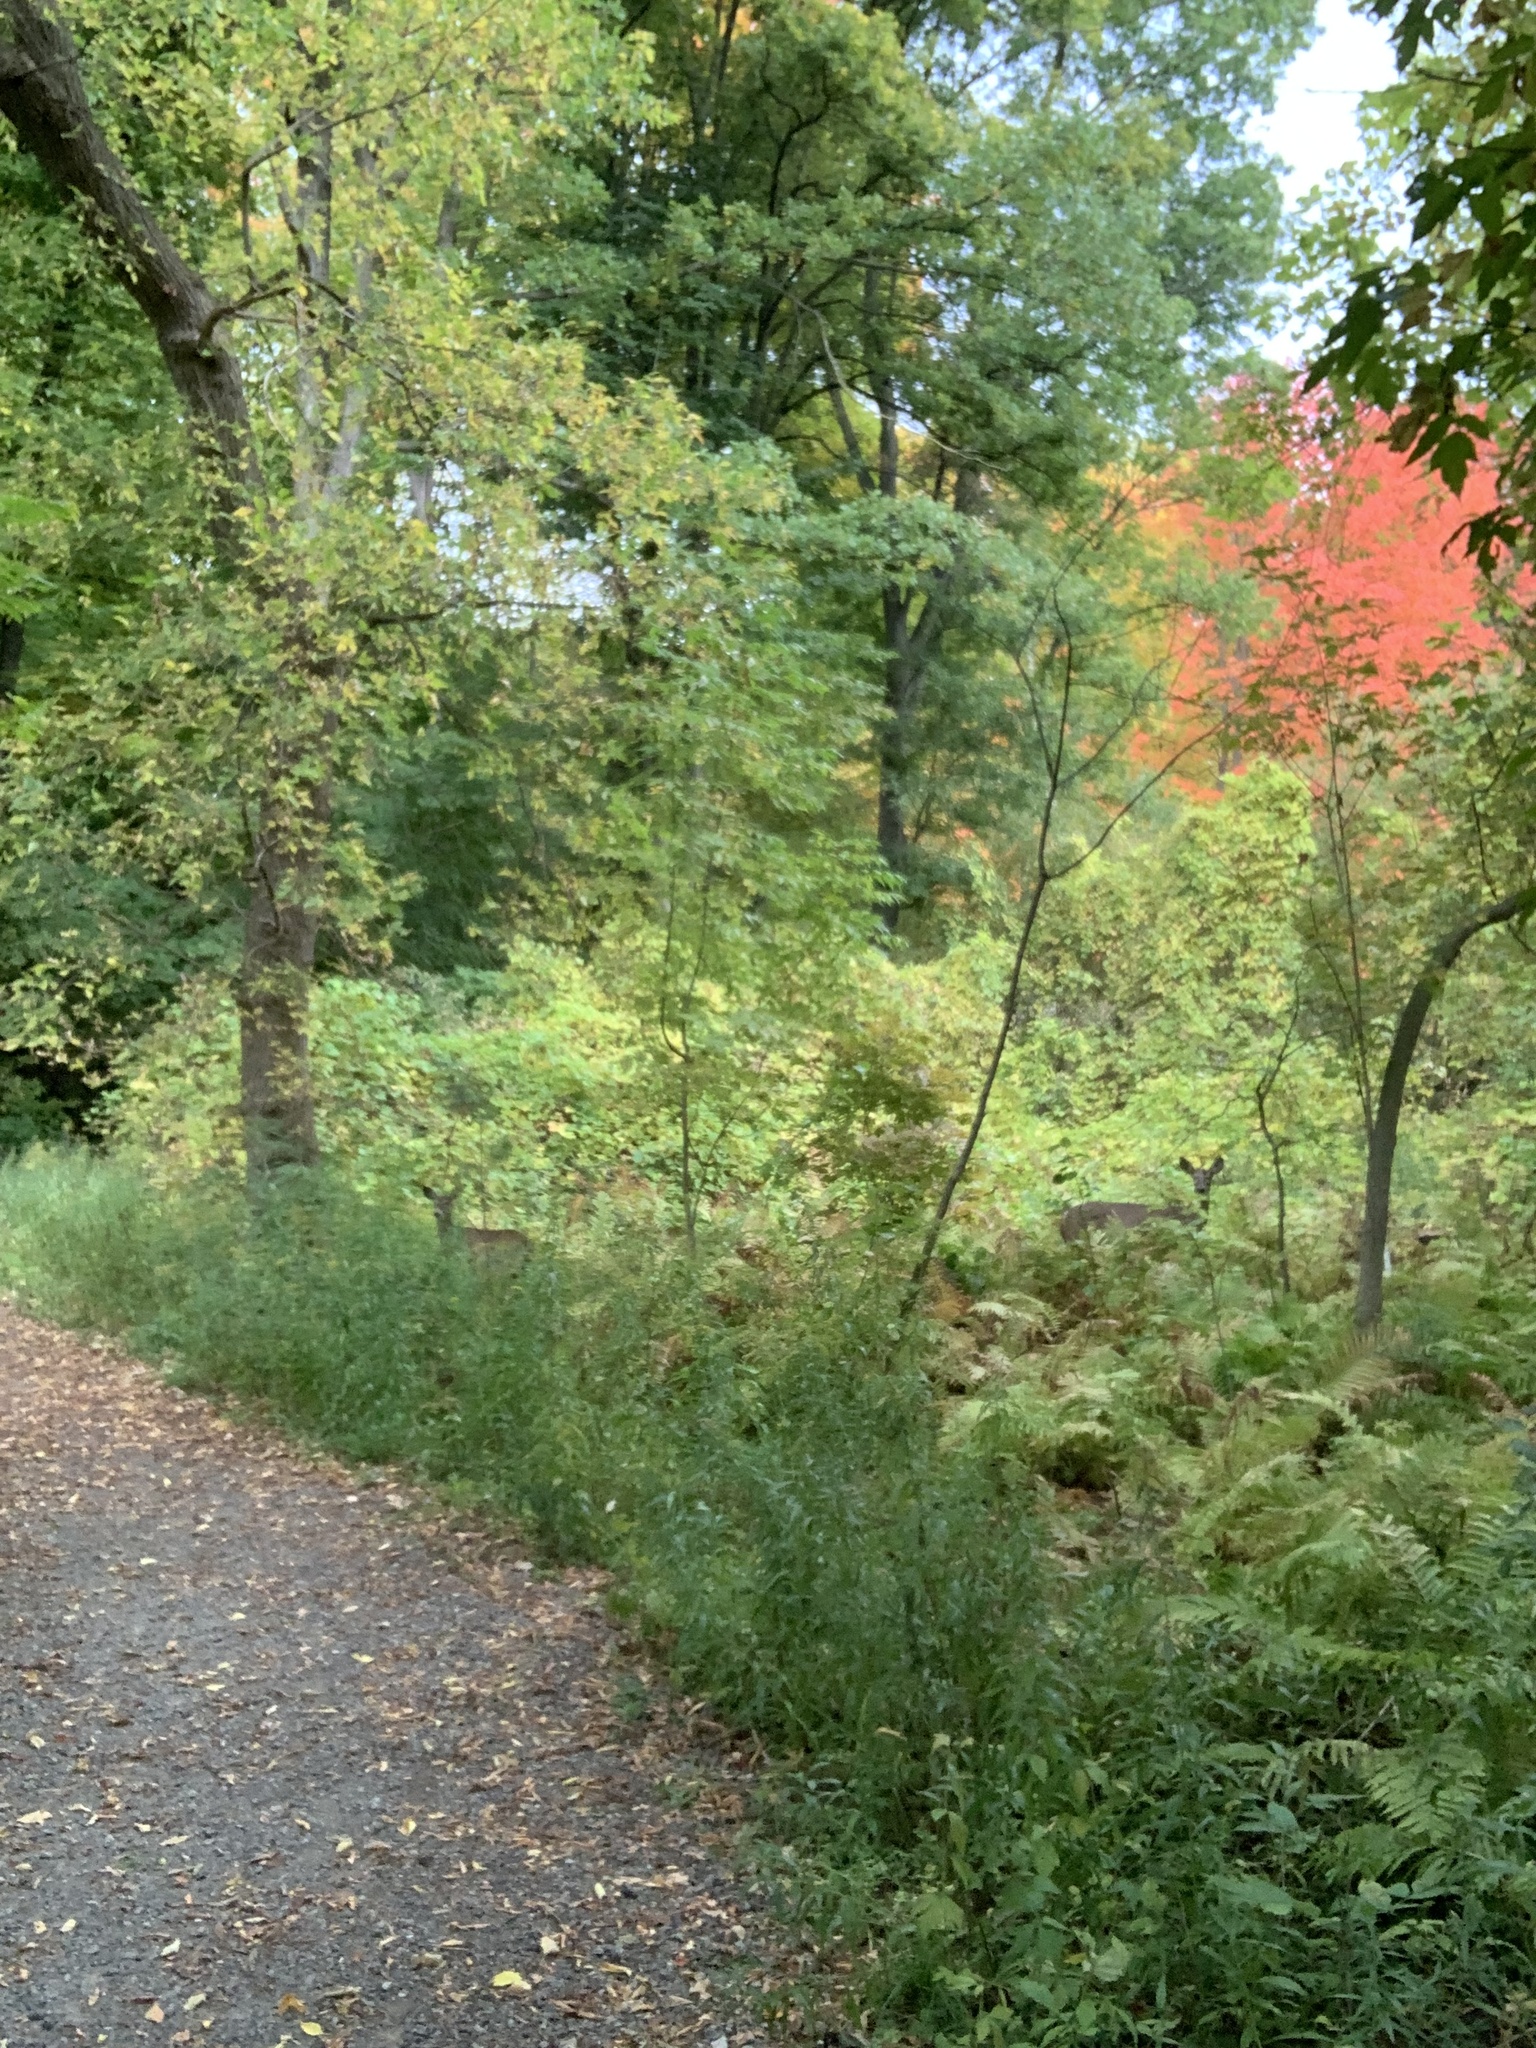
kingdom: Animalia
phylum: Chordata
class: Mammalia
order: Artiodactyla
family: Cervidae
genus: Odocoileus
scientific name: Odocoileus virginianus
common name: White-tailed deer
